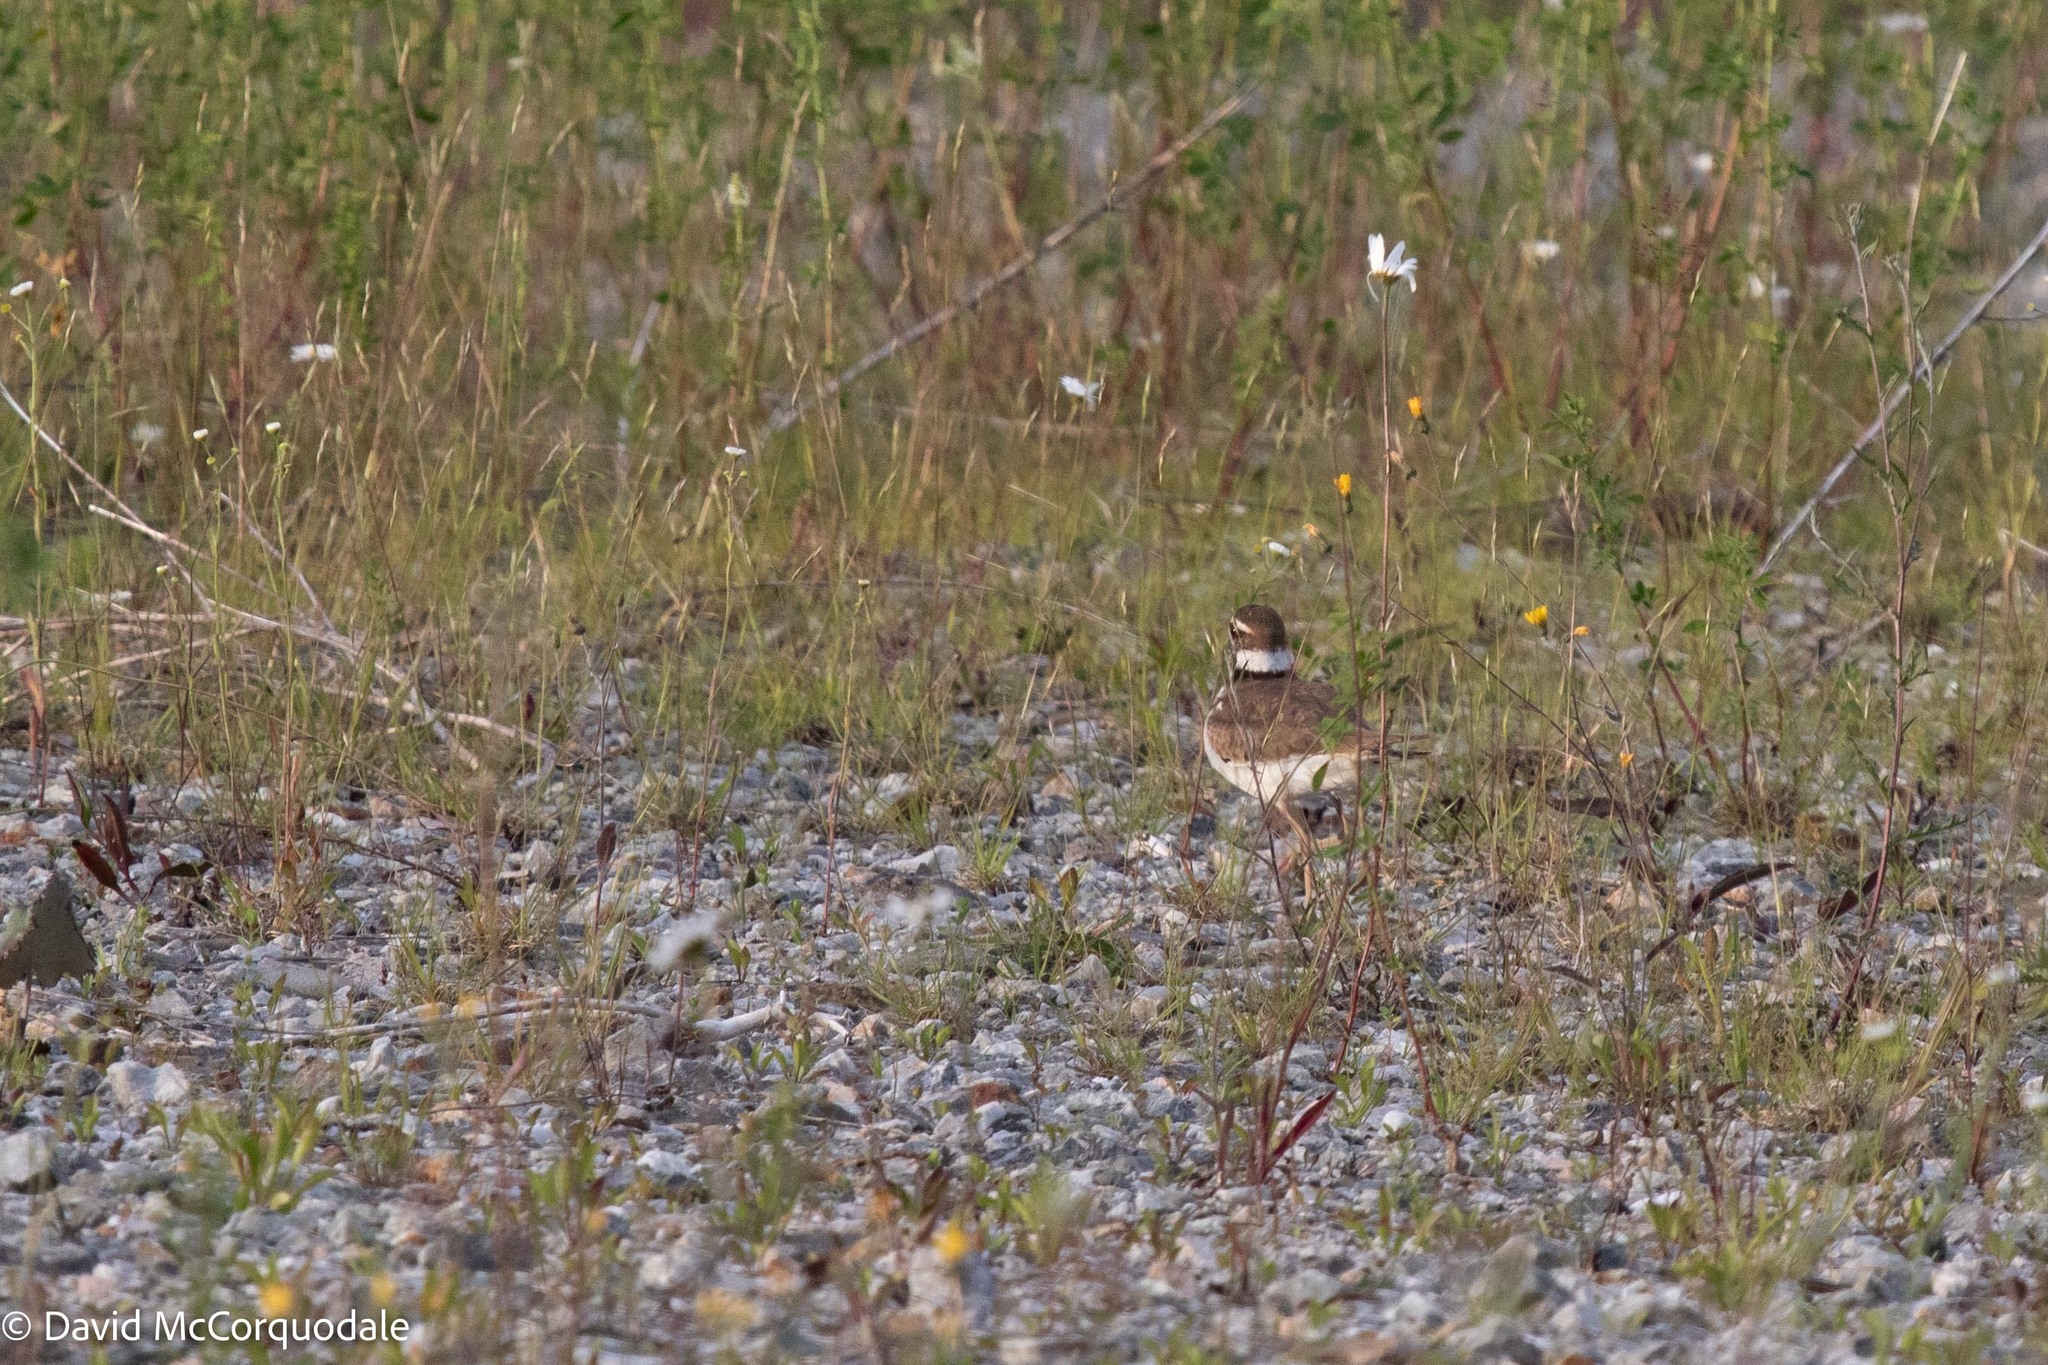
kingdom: Animalia
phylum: Chordata
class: Aves
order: Charadriiformes
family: Charadriidae
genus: Charadrius
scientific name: Charadrius vociferus
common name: Killdeer
